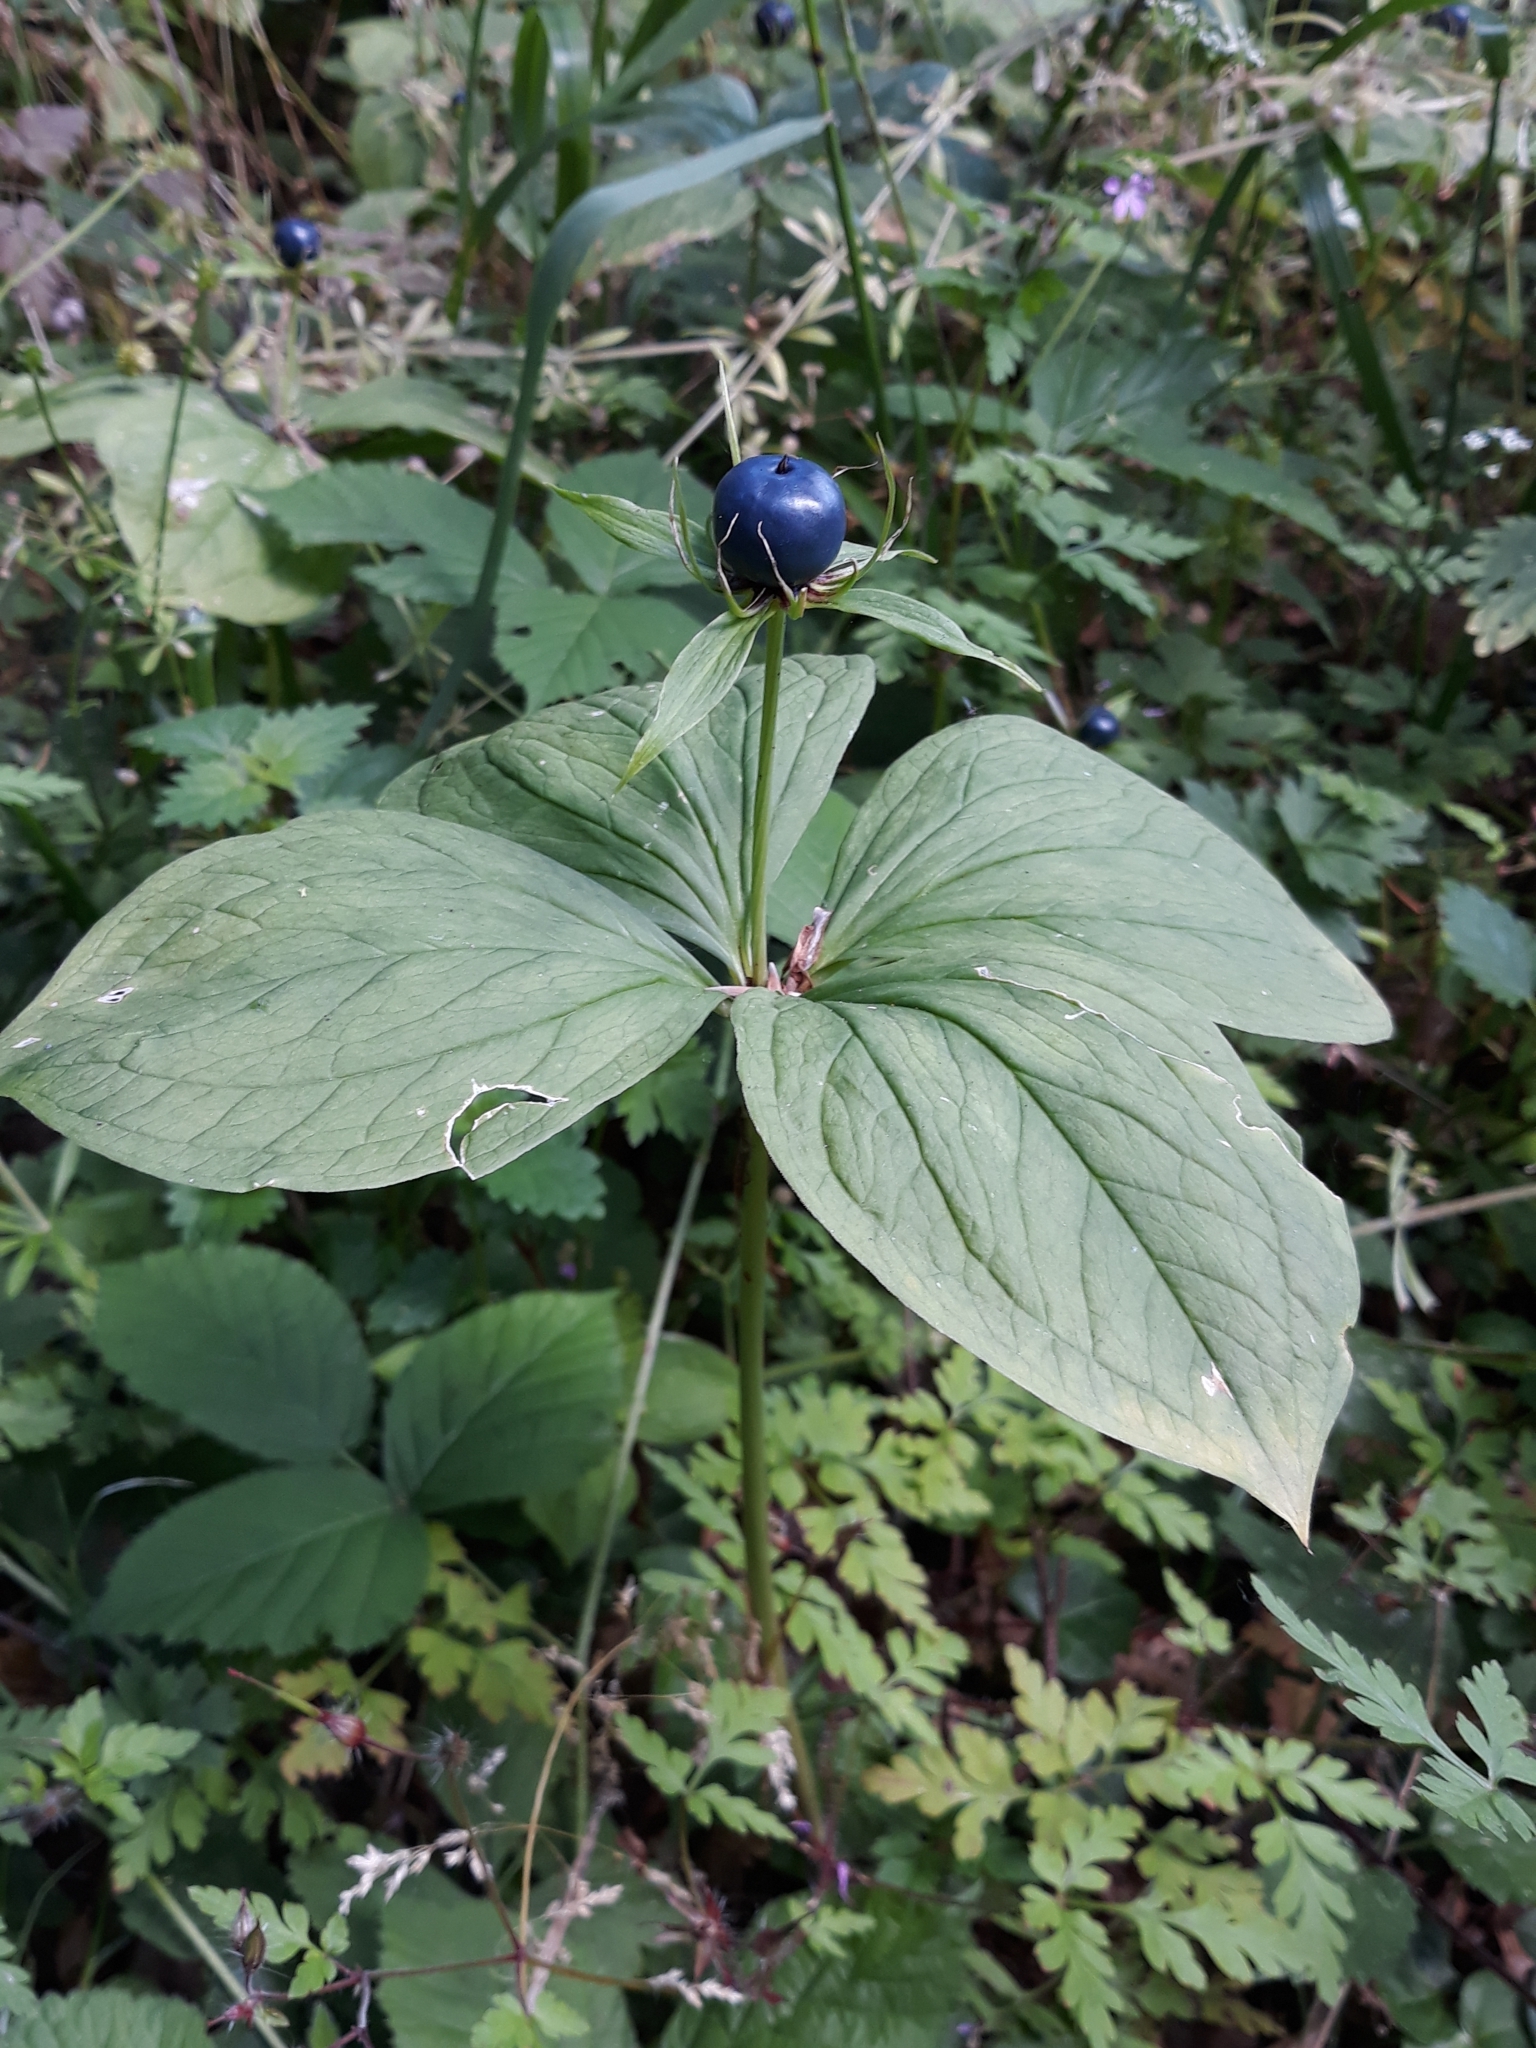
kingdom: Plantae
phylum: Tracheophyta
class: Liliopsida
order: Liliales
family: Melanthiaceae
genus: Paris
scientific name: Paris quadrifolia
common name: Herb-paris
